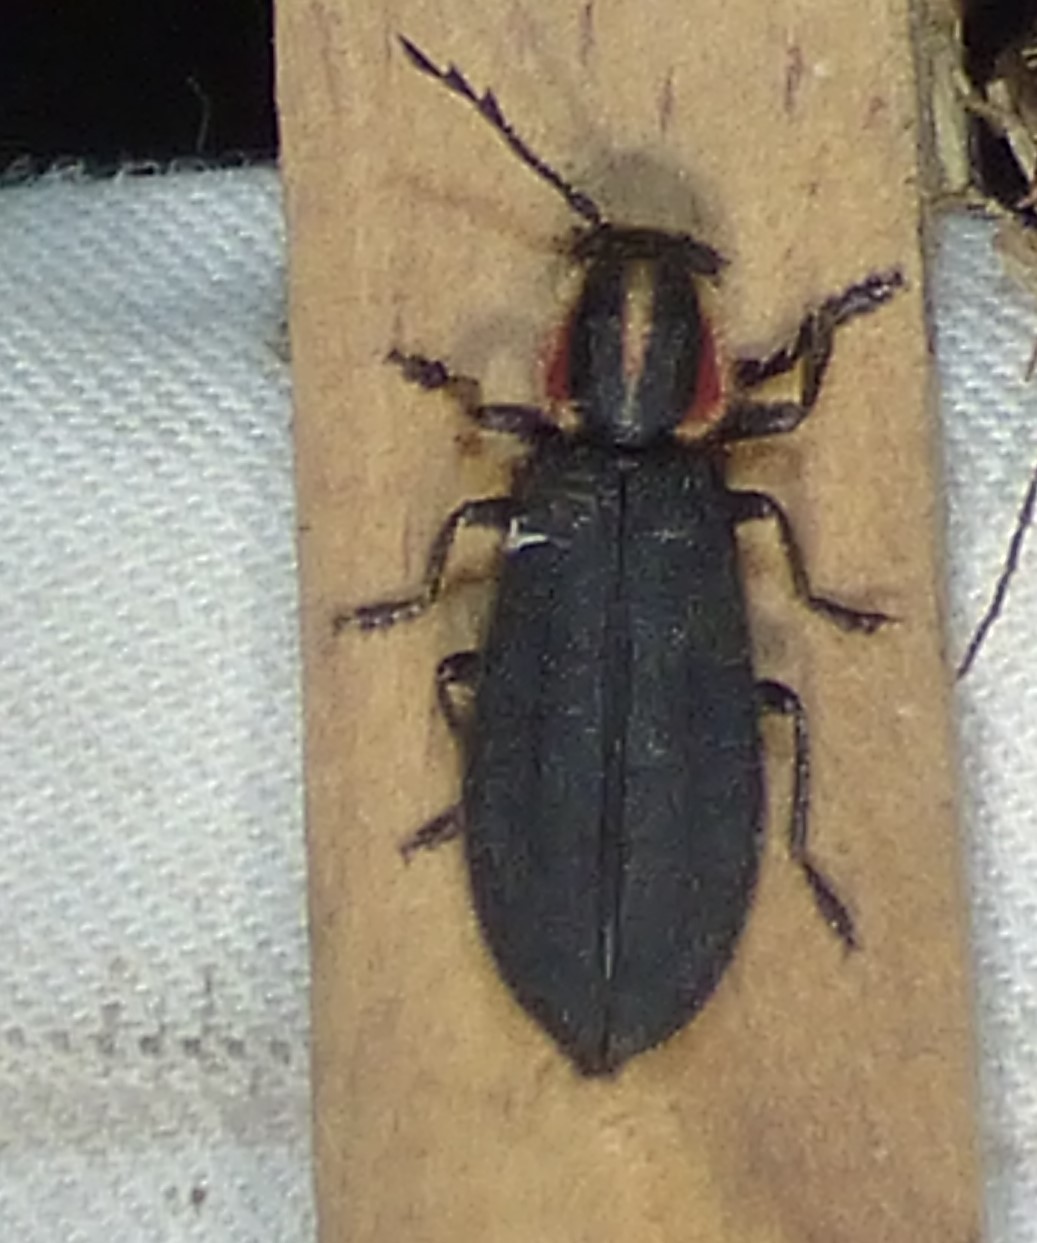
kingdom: Animalia
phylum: Arthropoda
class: Insecta
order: Coleoptera
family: Cleridae
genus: Chariessa
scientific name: Chariessa pilosa
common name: Pilose checkered beetle
